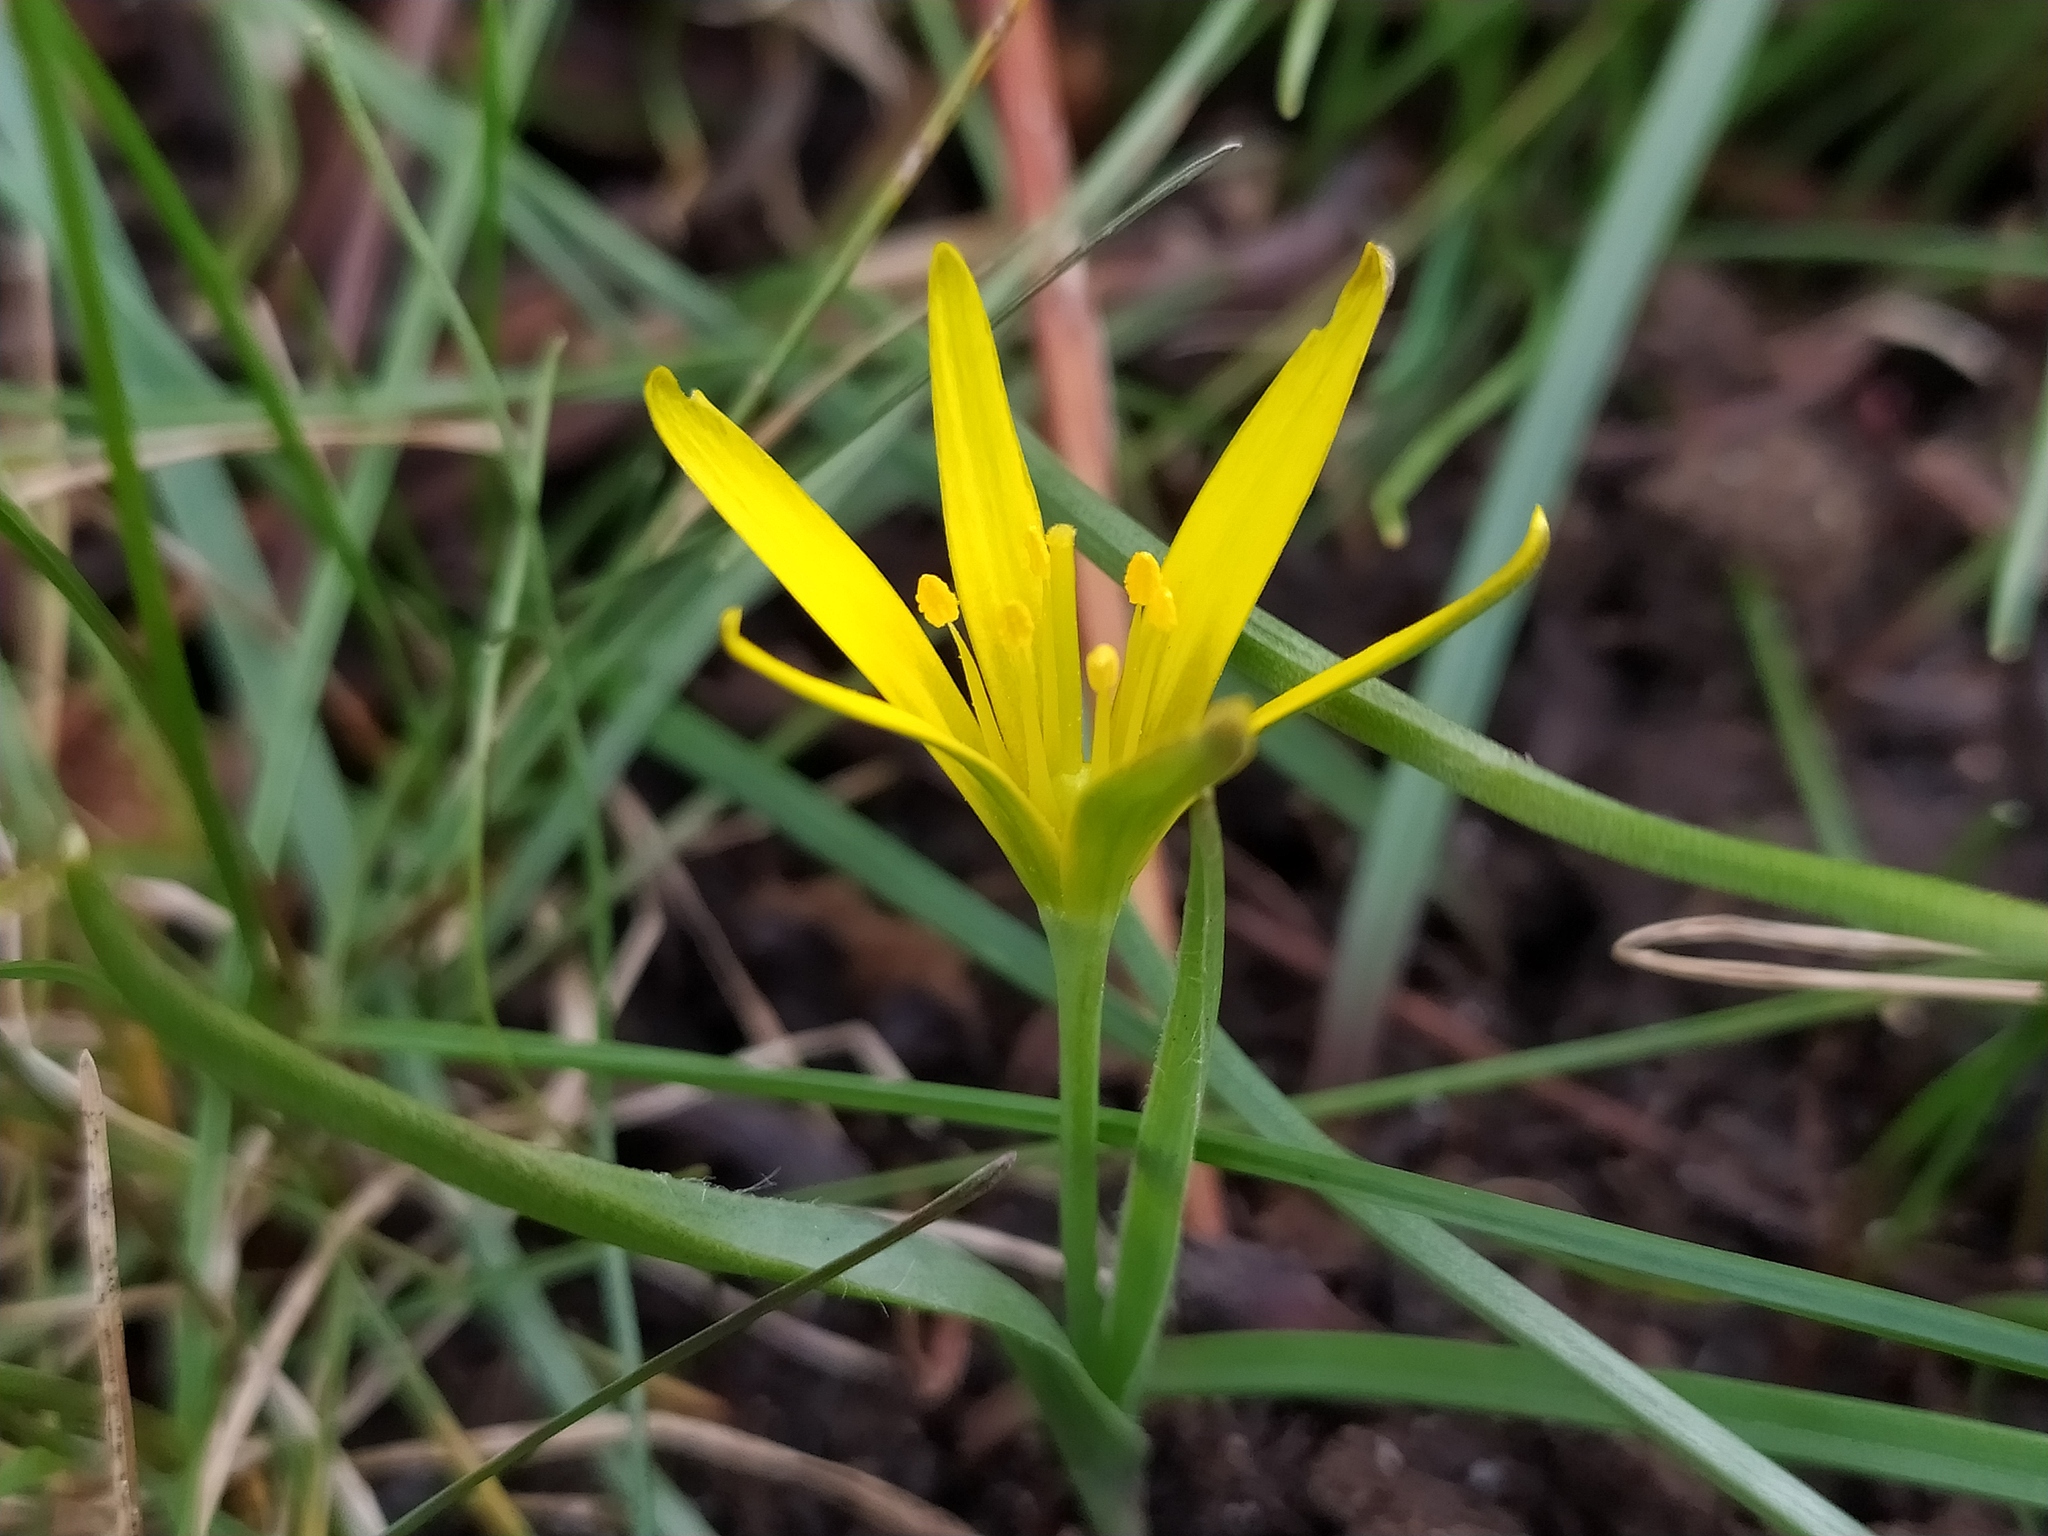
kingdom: Plantae
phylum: Tracheophyta
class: Liliopsida
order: Liliales
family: Liliaceae
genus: Gagea
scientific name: Gagea pratensis
